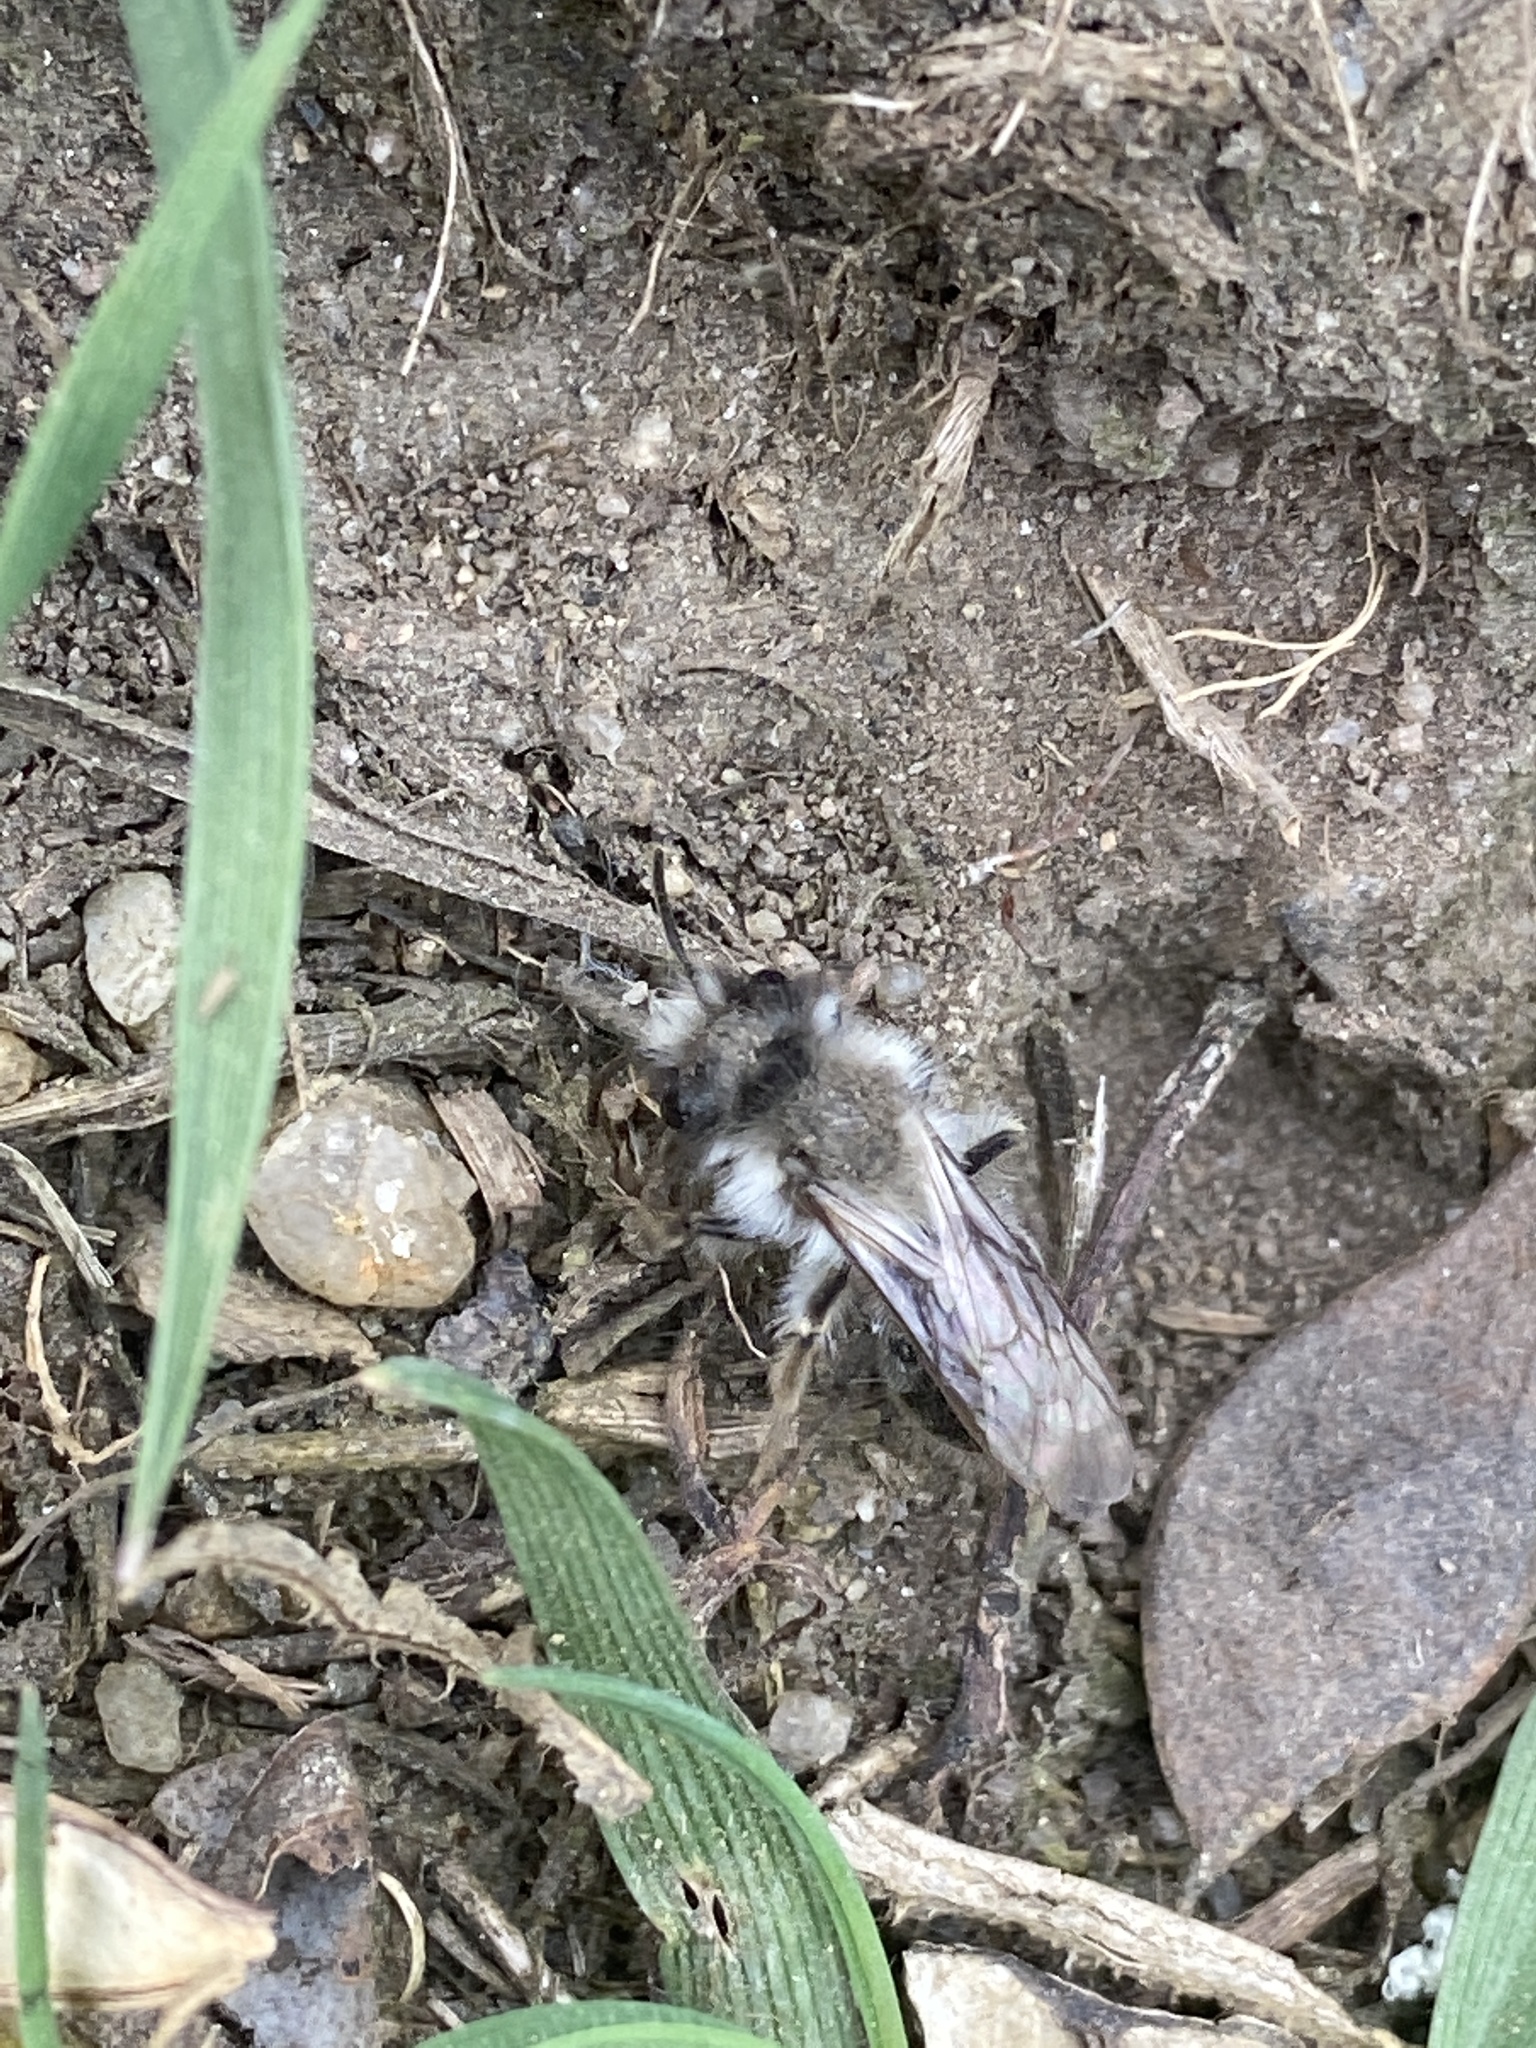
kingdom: Animalia
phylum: Arthropoda
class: Insecta
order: Hymenoptera
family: Andrenidae
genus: Andrena
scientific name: Andrena vaga
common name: Grey-backed mining bee
